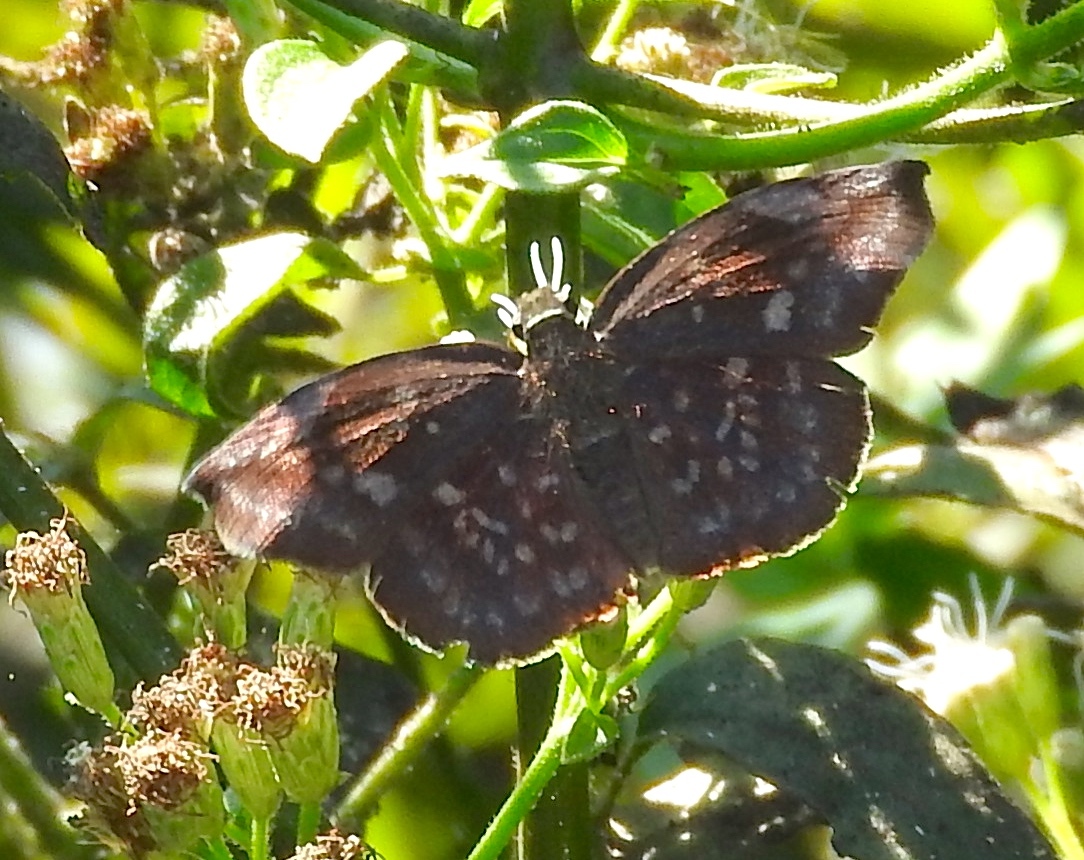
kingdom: Animalia
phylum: Arthropoda
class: Insecta
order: Lepidoptera
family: Hesperiidae
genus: Achlyodes
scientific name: Achlyodes thraso
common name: Sickle-winged skipper
